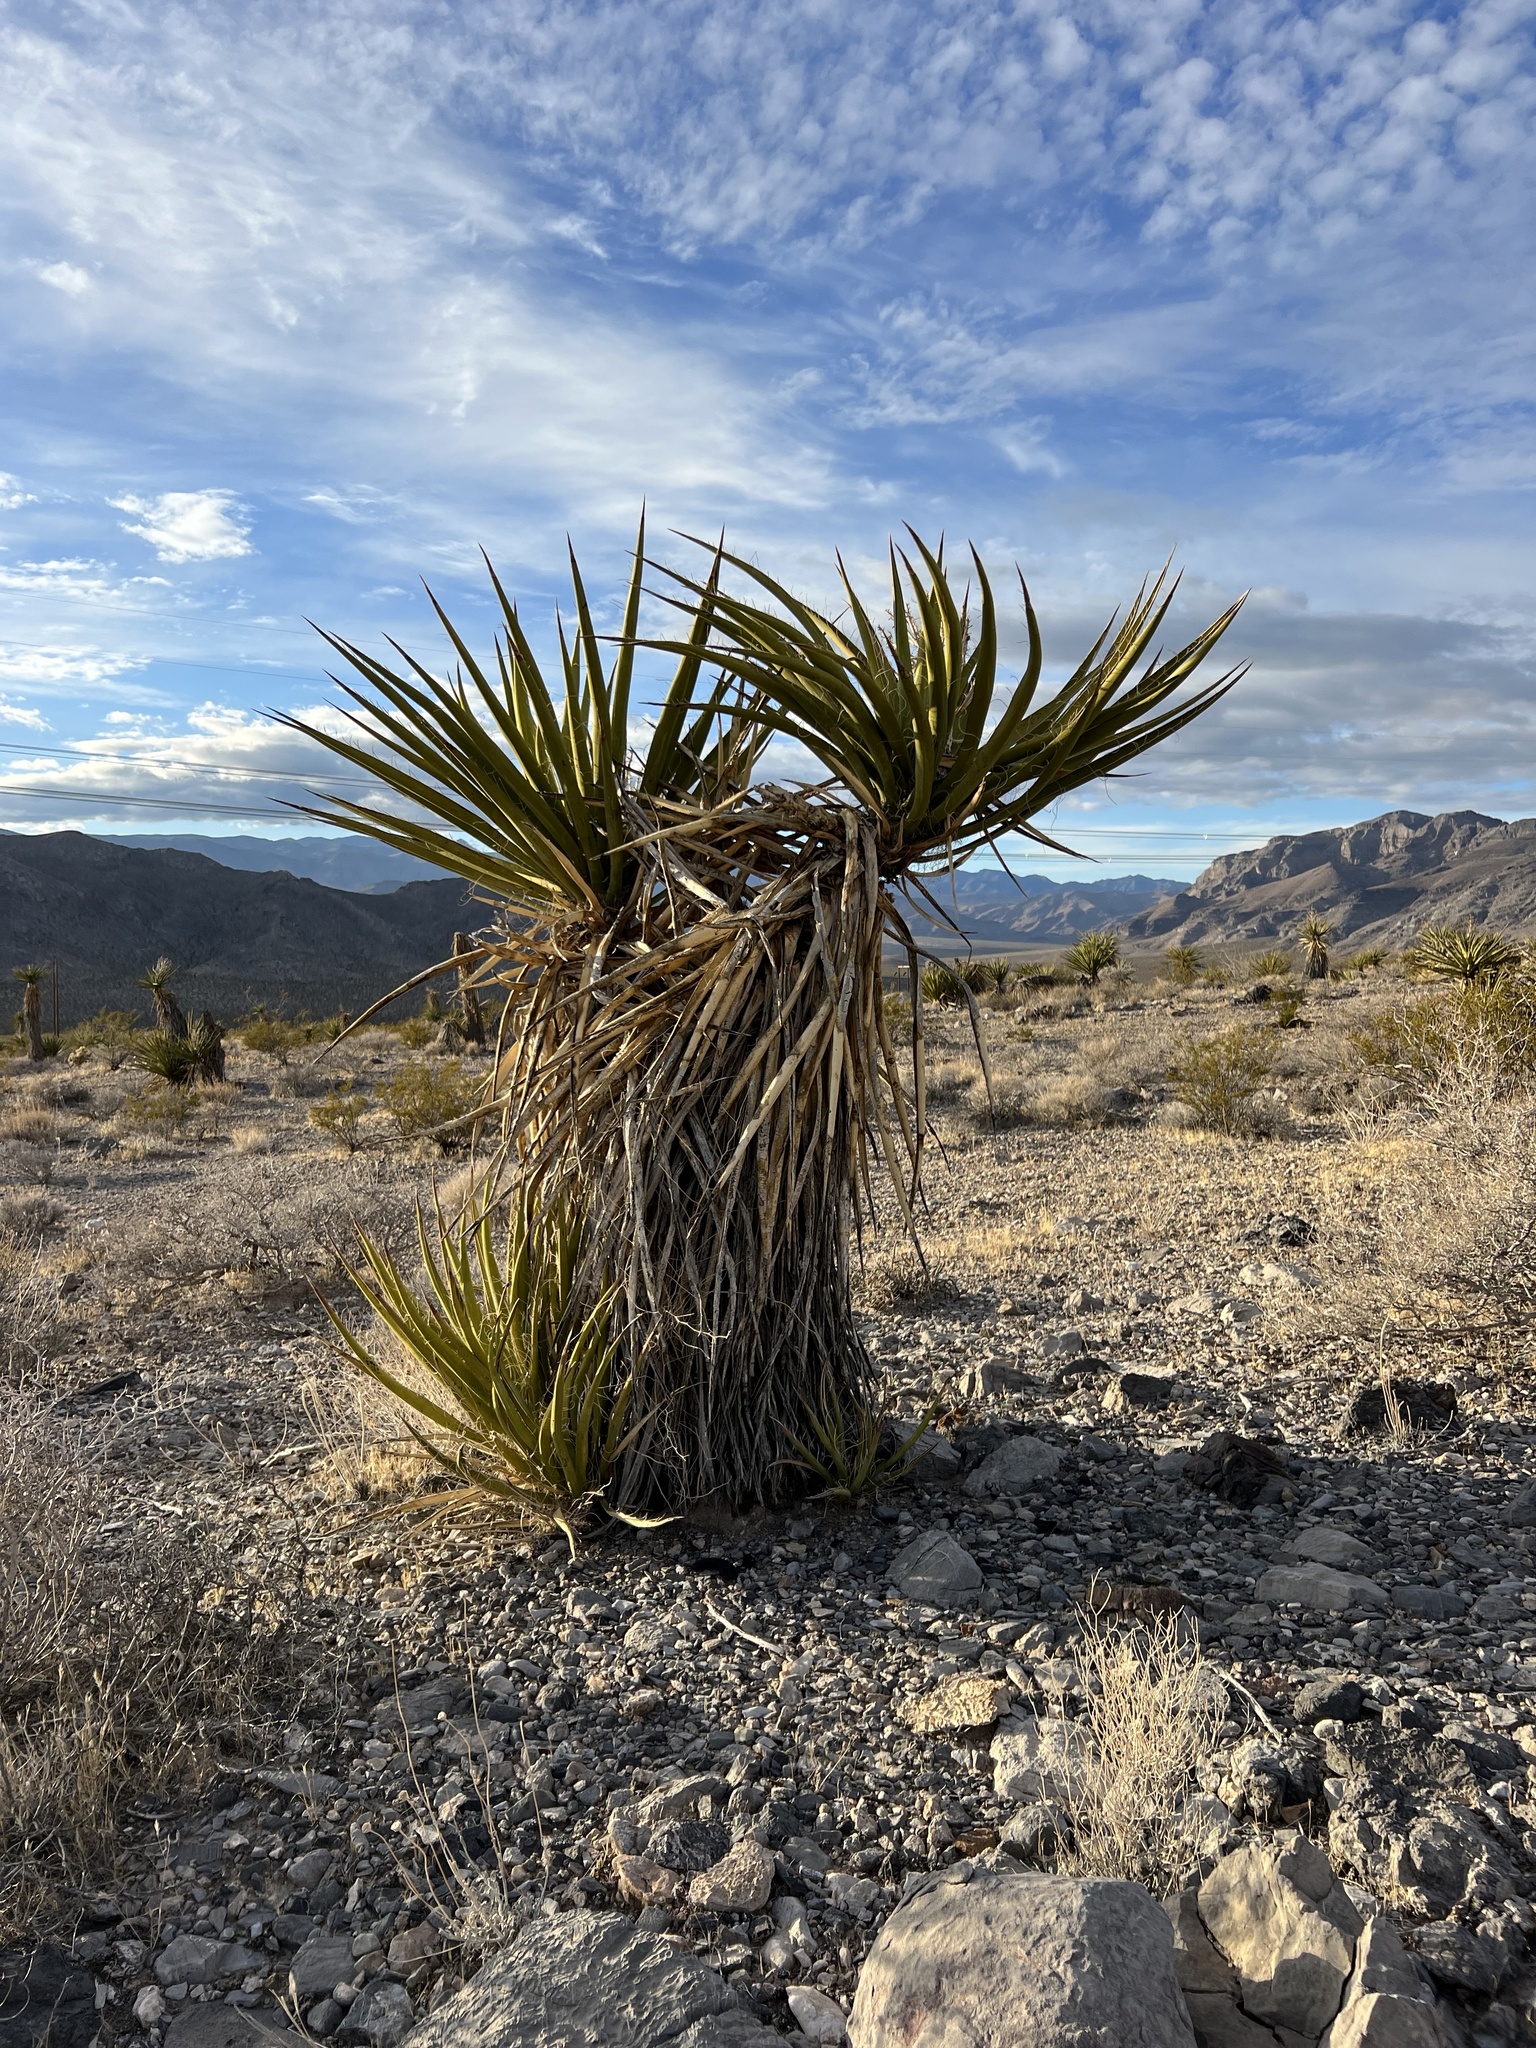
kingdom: Plantae
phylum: Tracheophyta
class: Liliopsida
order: Asparagales
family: Asparagaceae
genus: Yucca
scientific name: Yucca schidigera
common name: Mojave yucca
